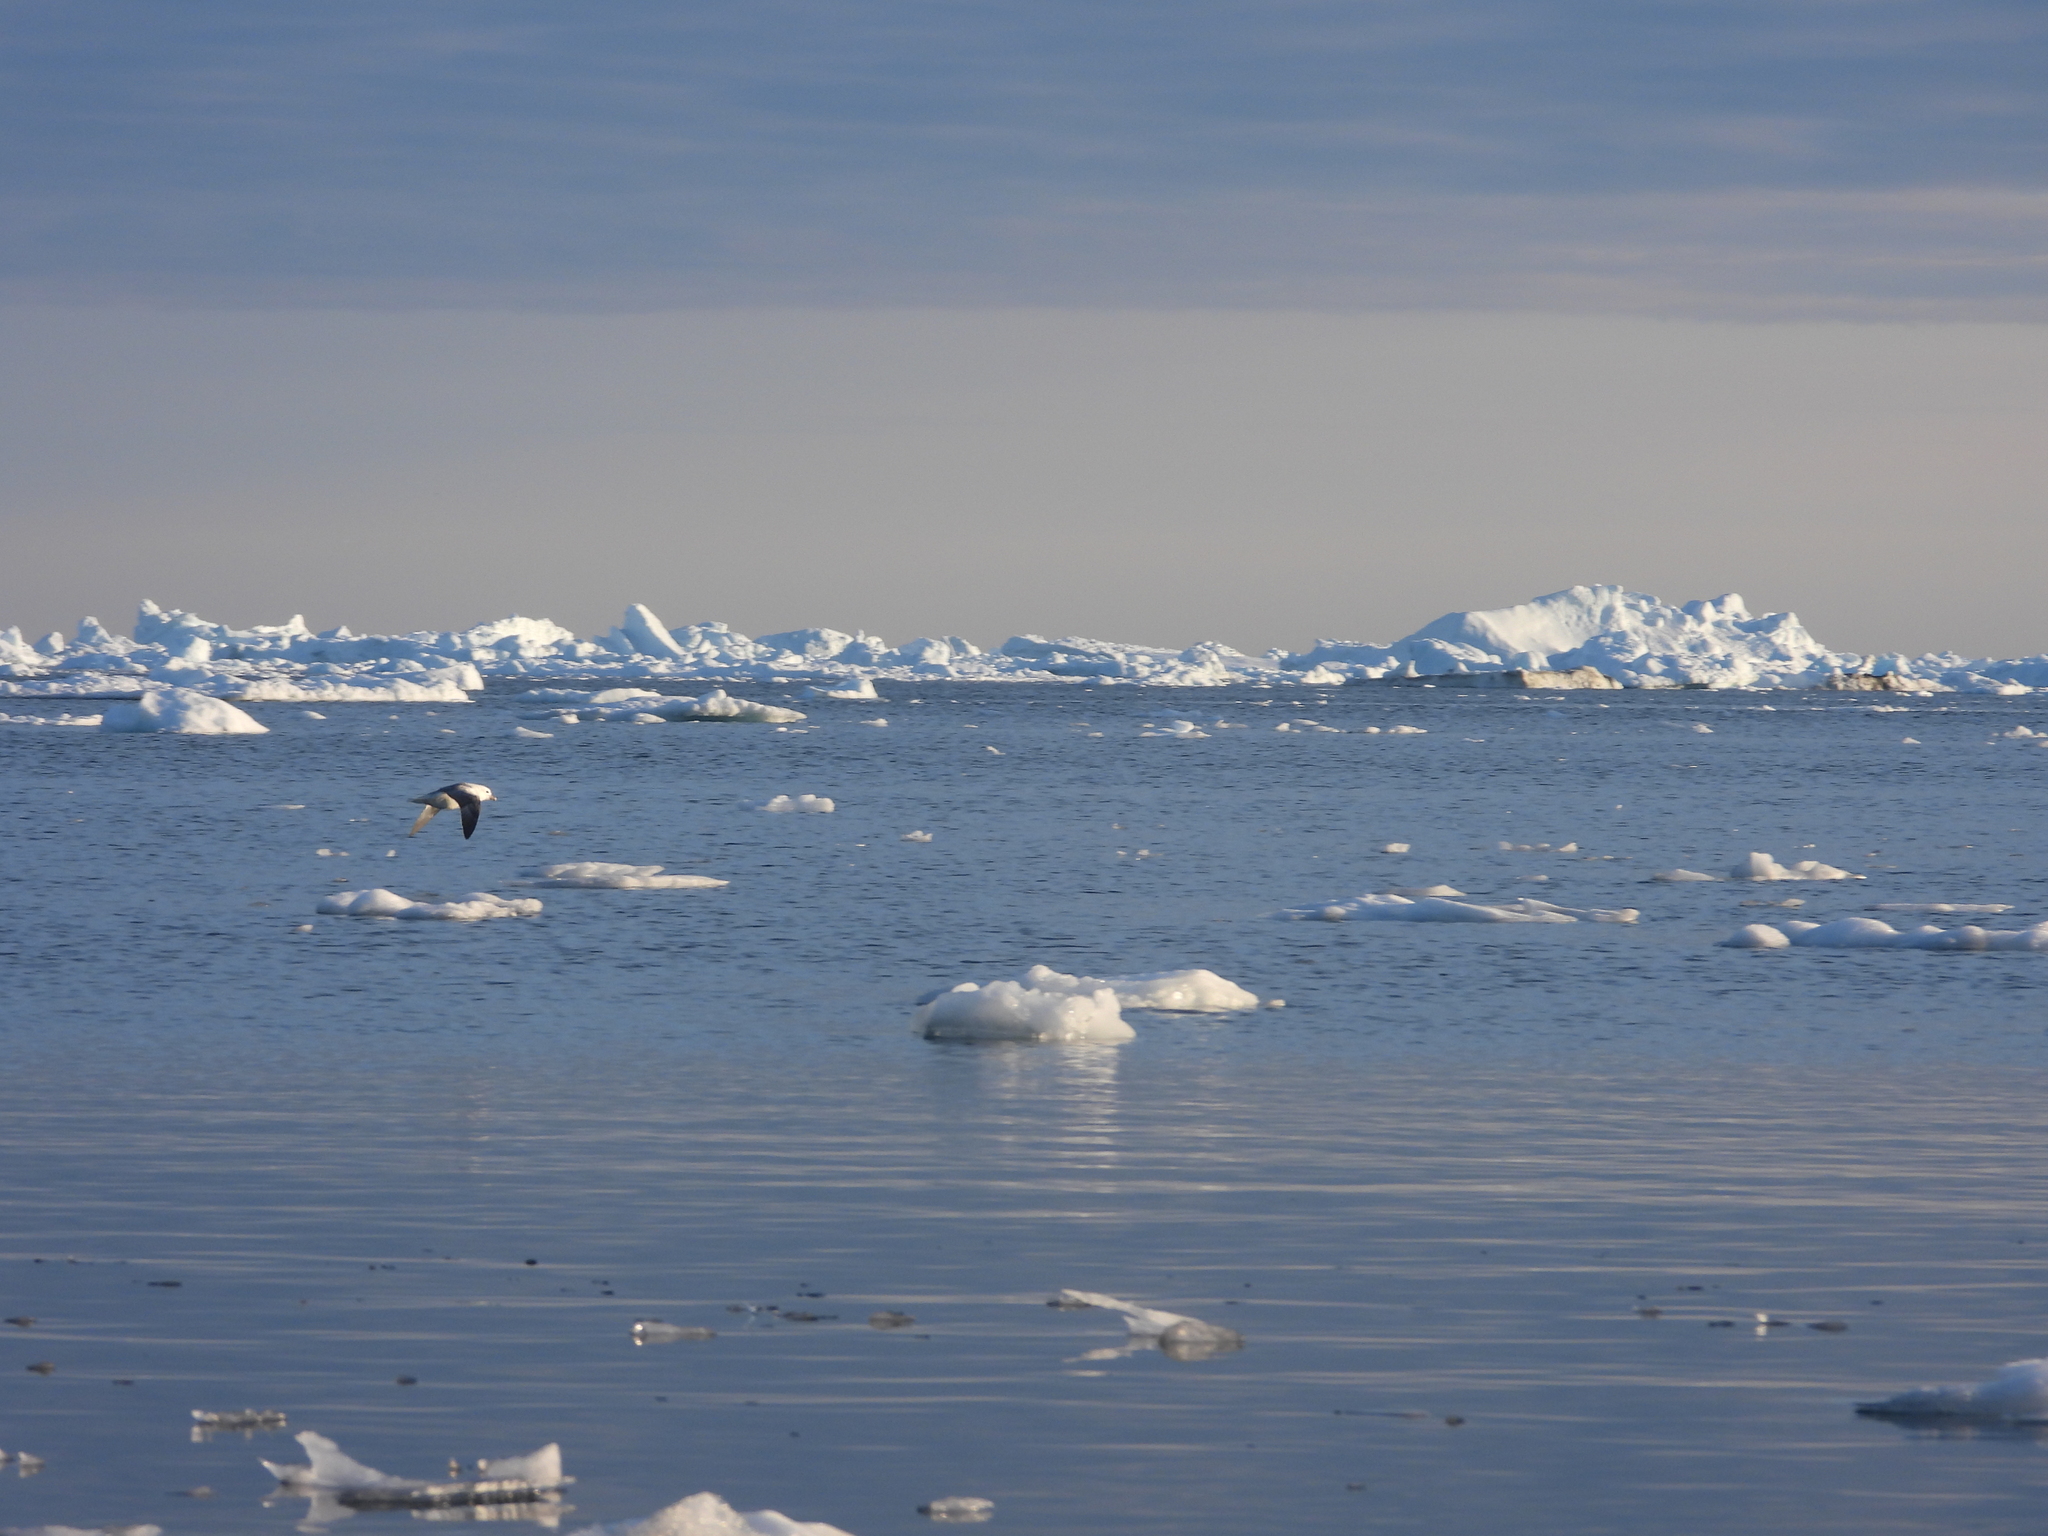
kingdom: Animalia
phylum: Chordata
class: Aves
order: Procellariiformes
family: Procellariidae
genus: Fulmarus
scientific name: Fulmarus glacialis
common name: Northern fulmar
